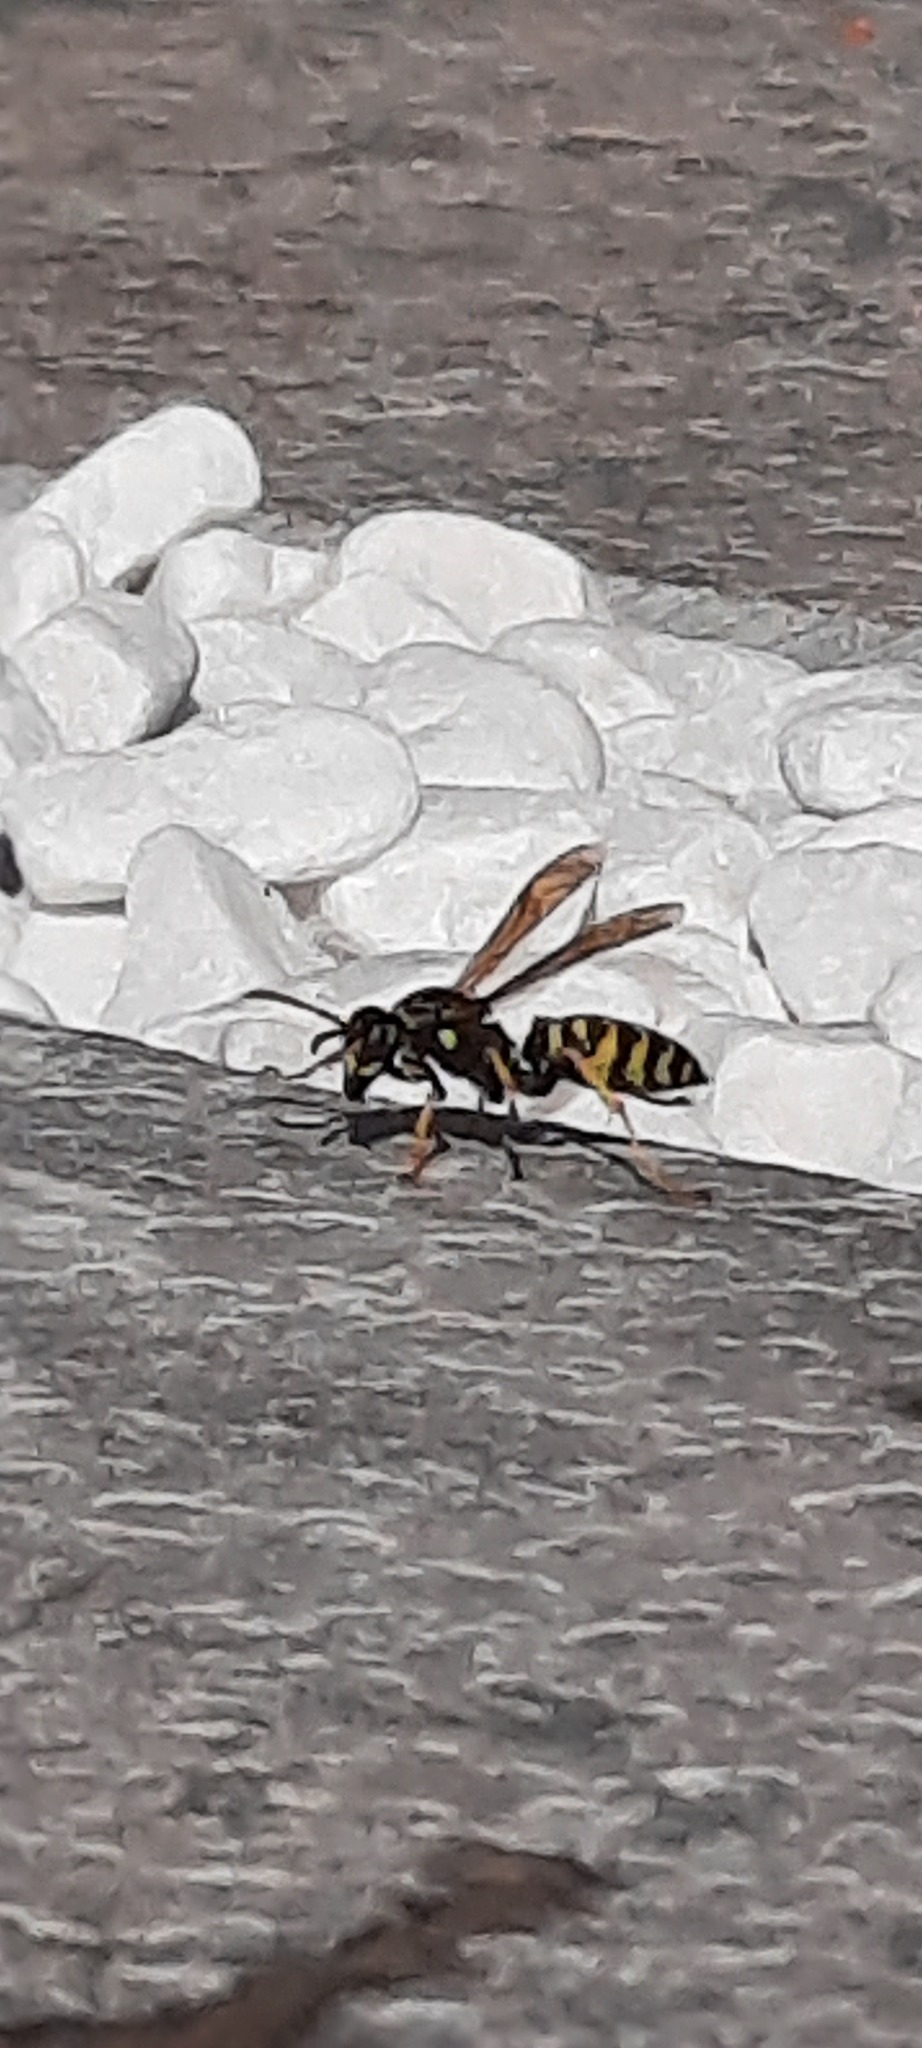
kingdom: Animalia
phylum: Arthropoda
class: Insecta
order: Hymenoptera
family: Eumenidae
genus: Polistes
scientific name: Polistes dominula
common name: Paper wasp
